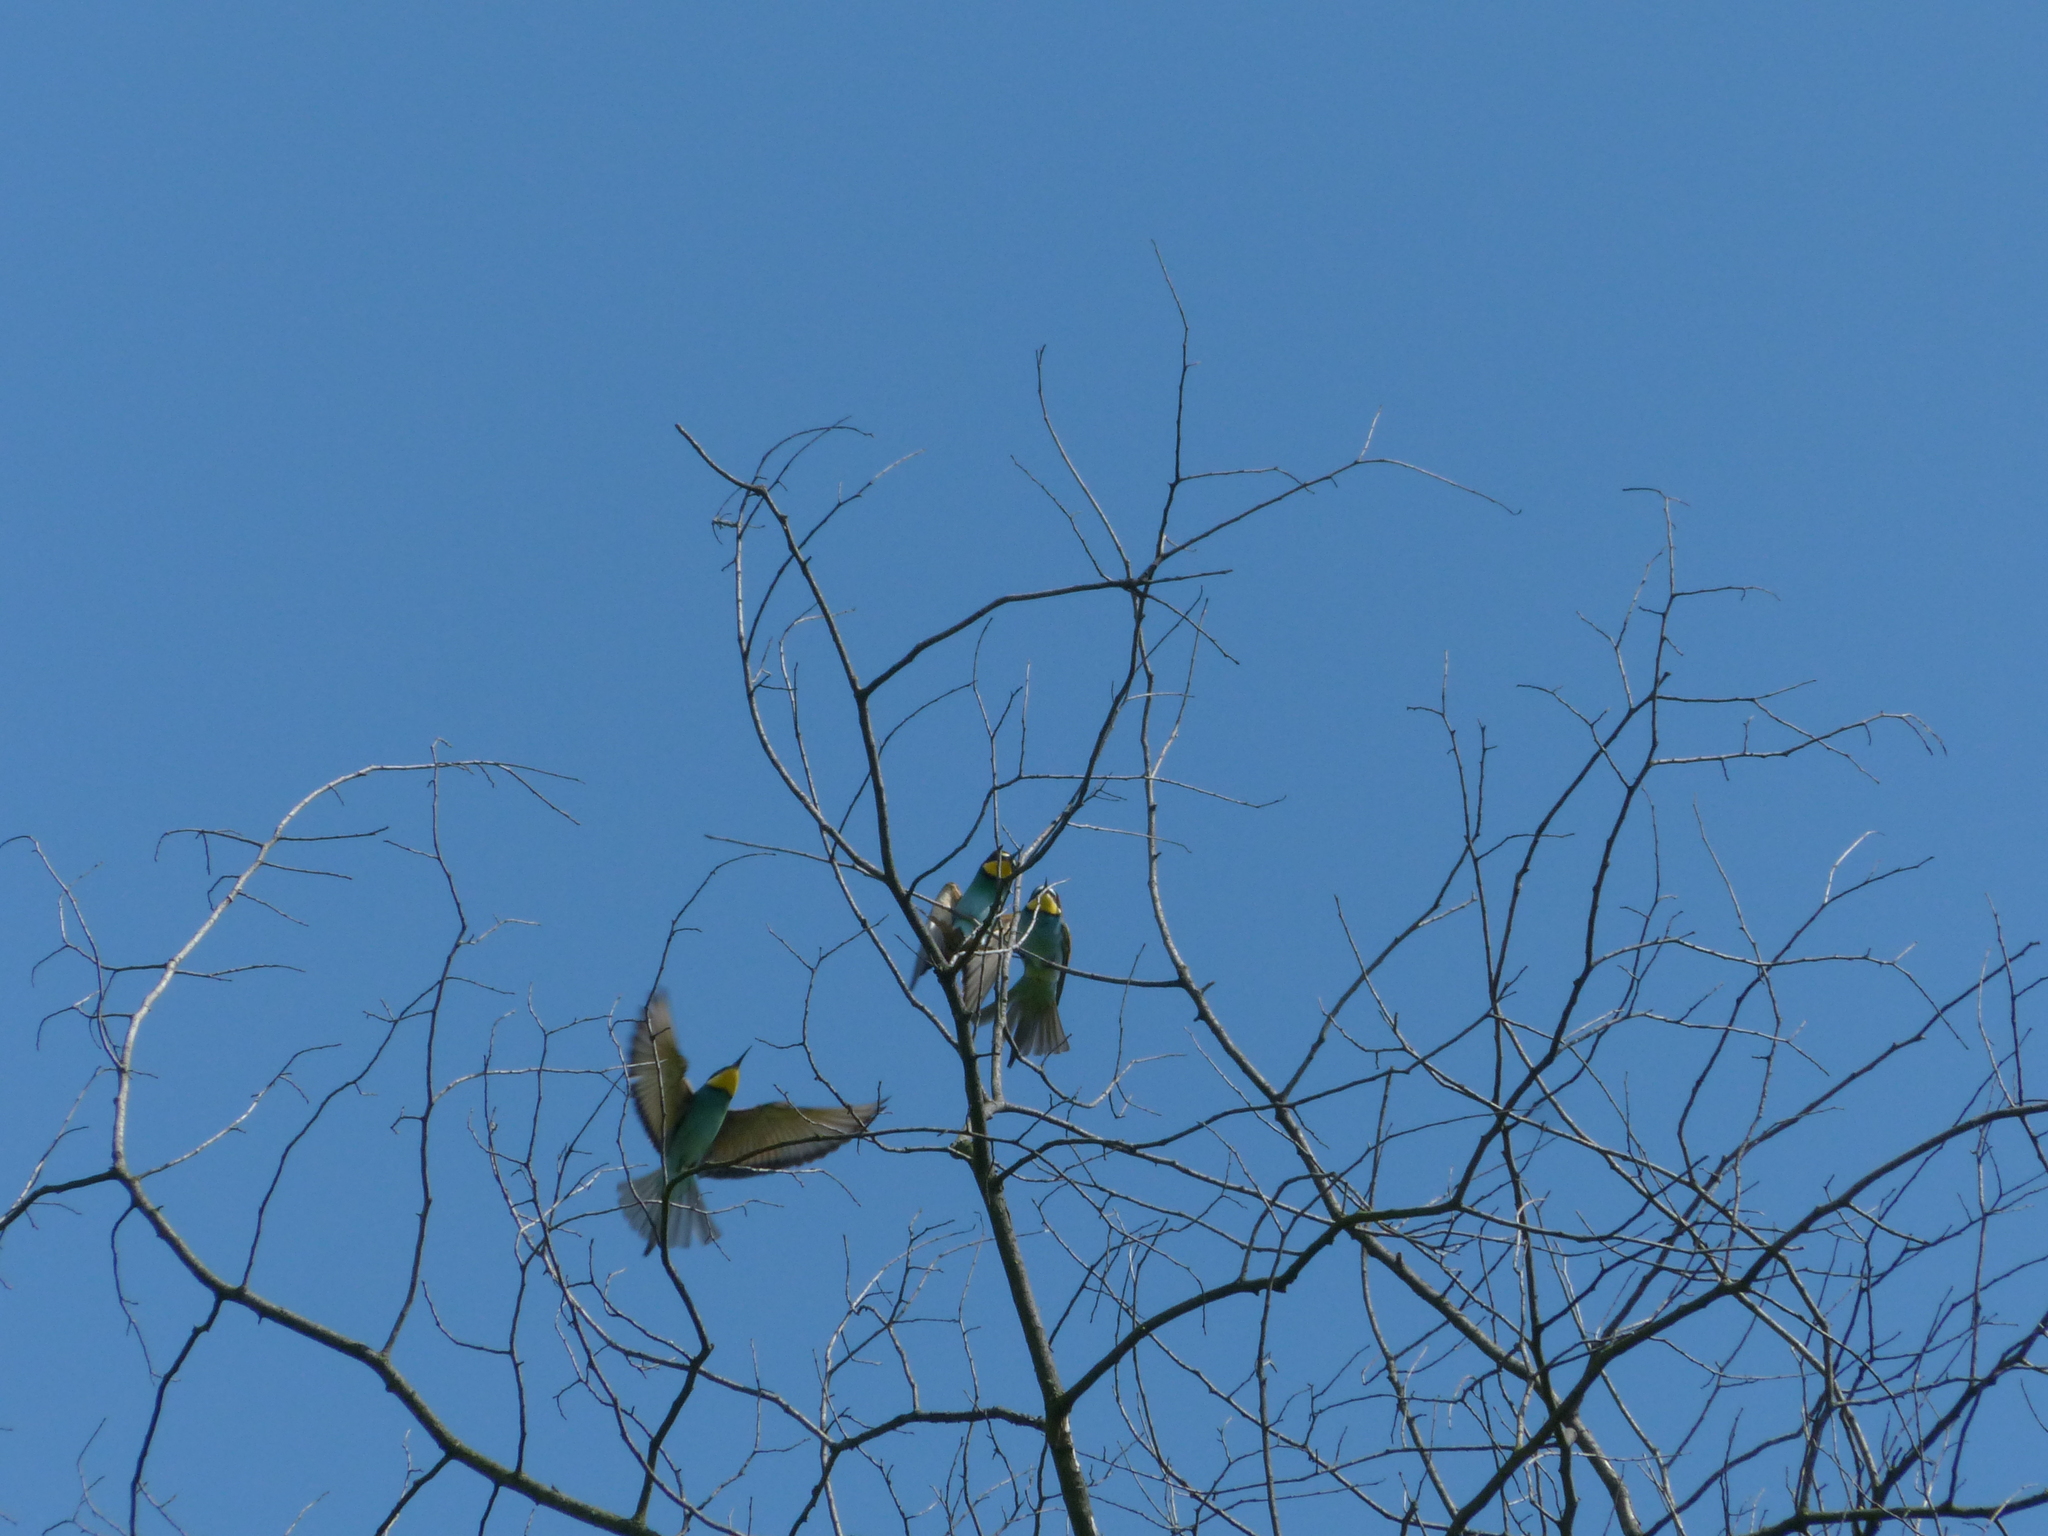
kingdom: Animalia
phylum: Chordata
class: Aves
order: Coraciiformes
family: Meropidae
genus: Merops
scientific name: Merops apiaster
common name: European bee-eater
